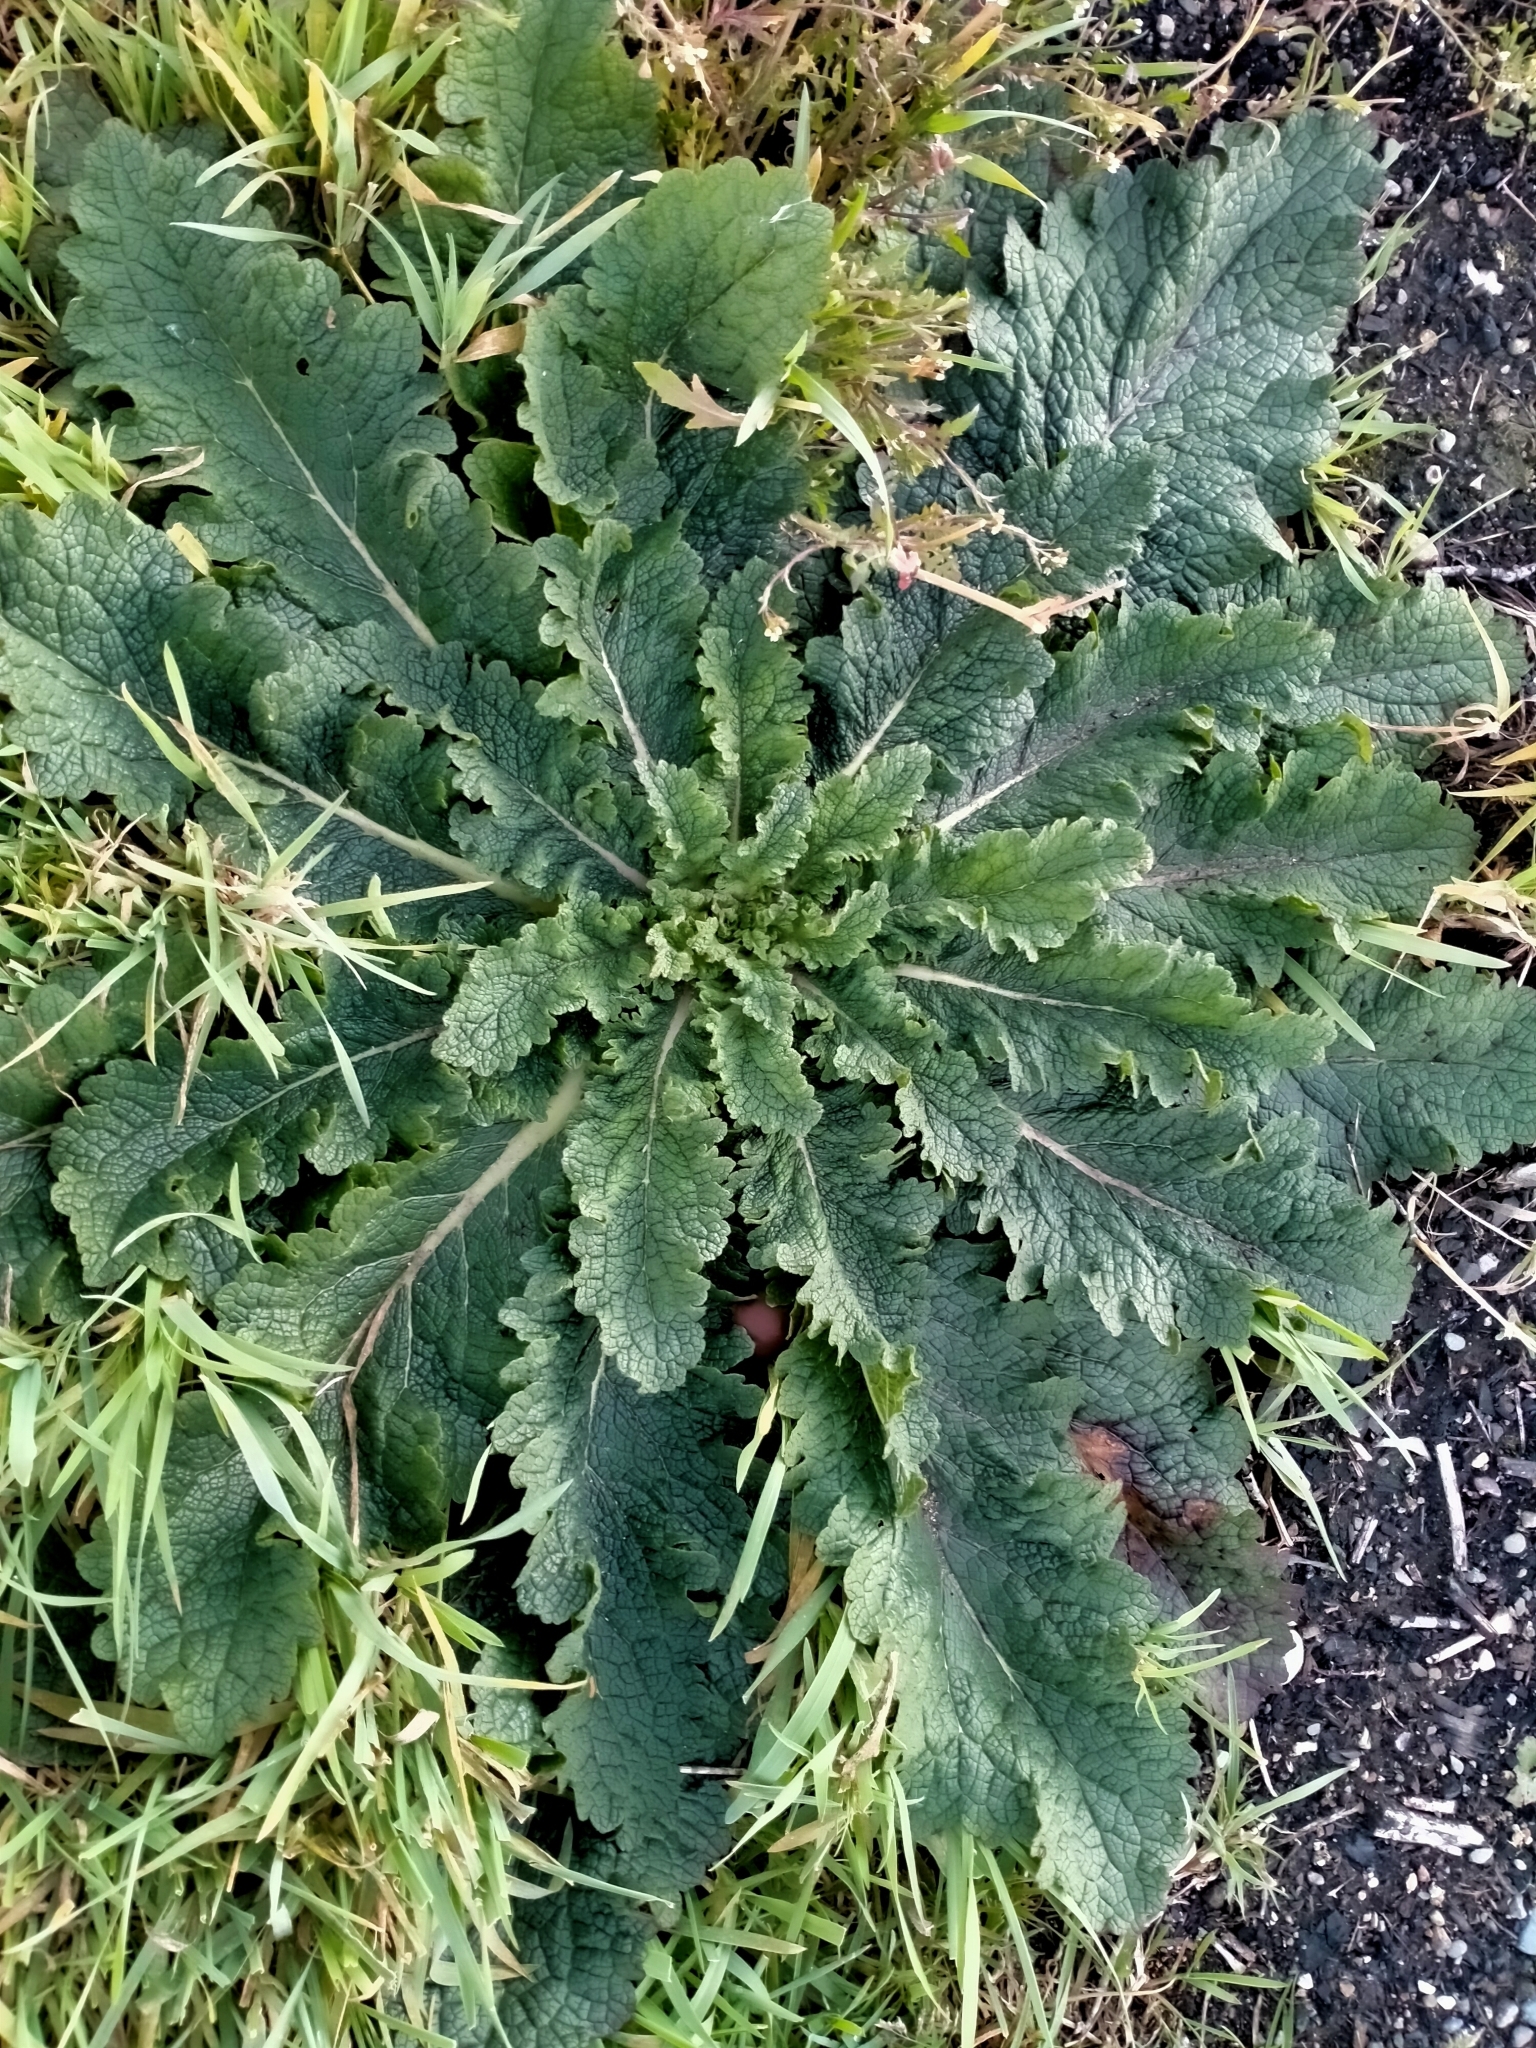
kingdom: Plantae
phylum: Tracheophyta
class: Magnoliopsida
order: Lamiales
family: Scrophulariaceae
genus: Verbascum
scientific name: Verbascum virgatum
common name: Twiggy mullein
